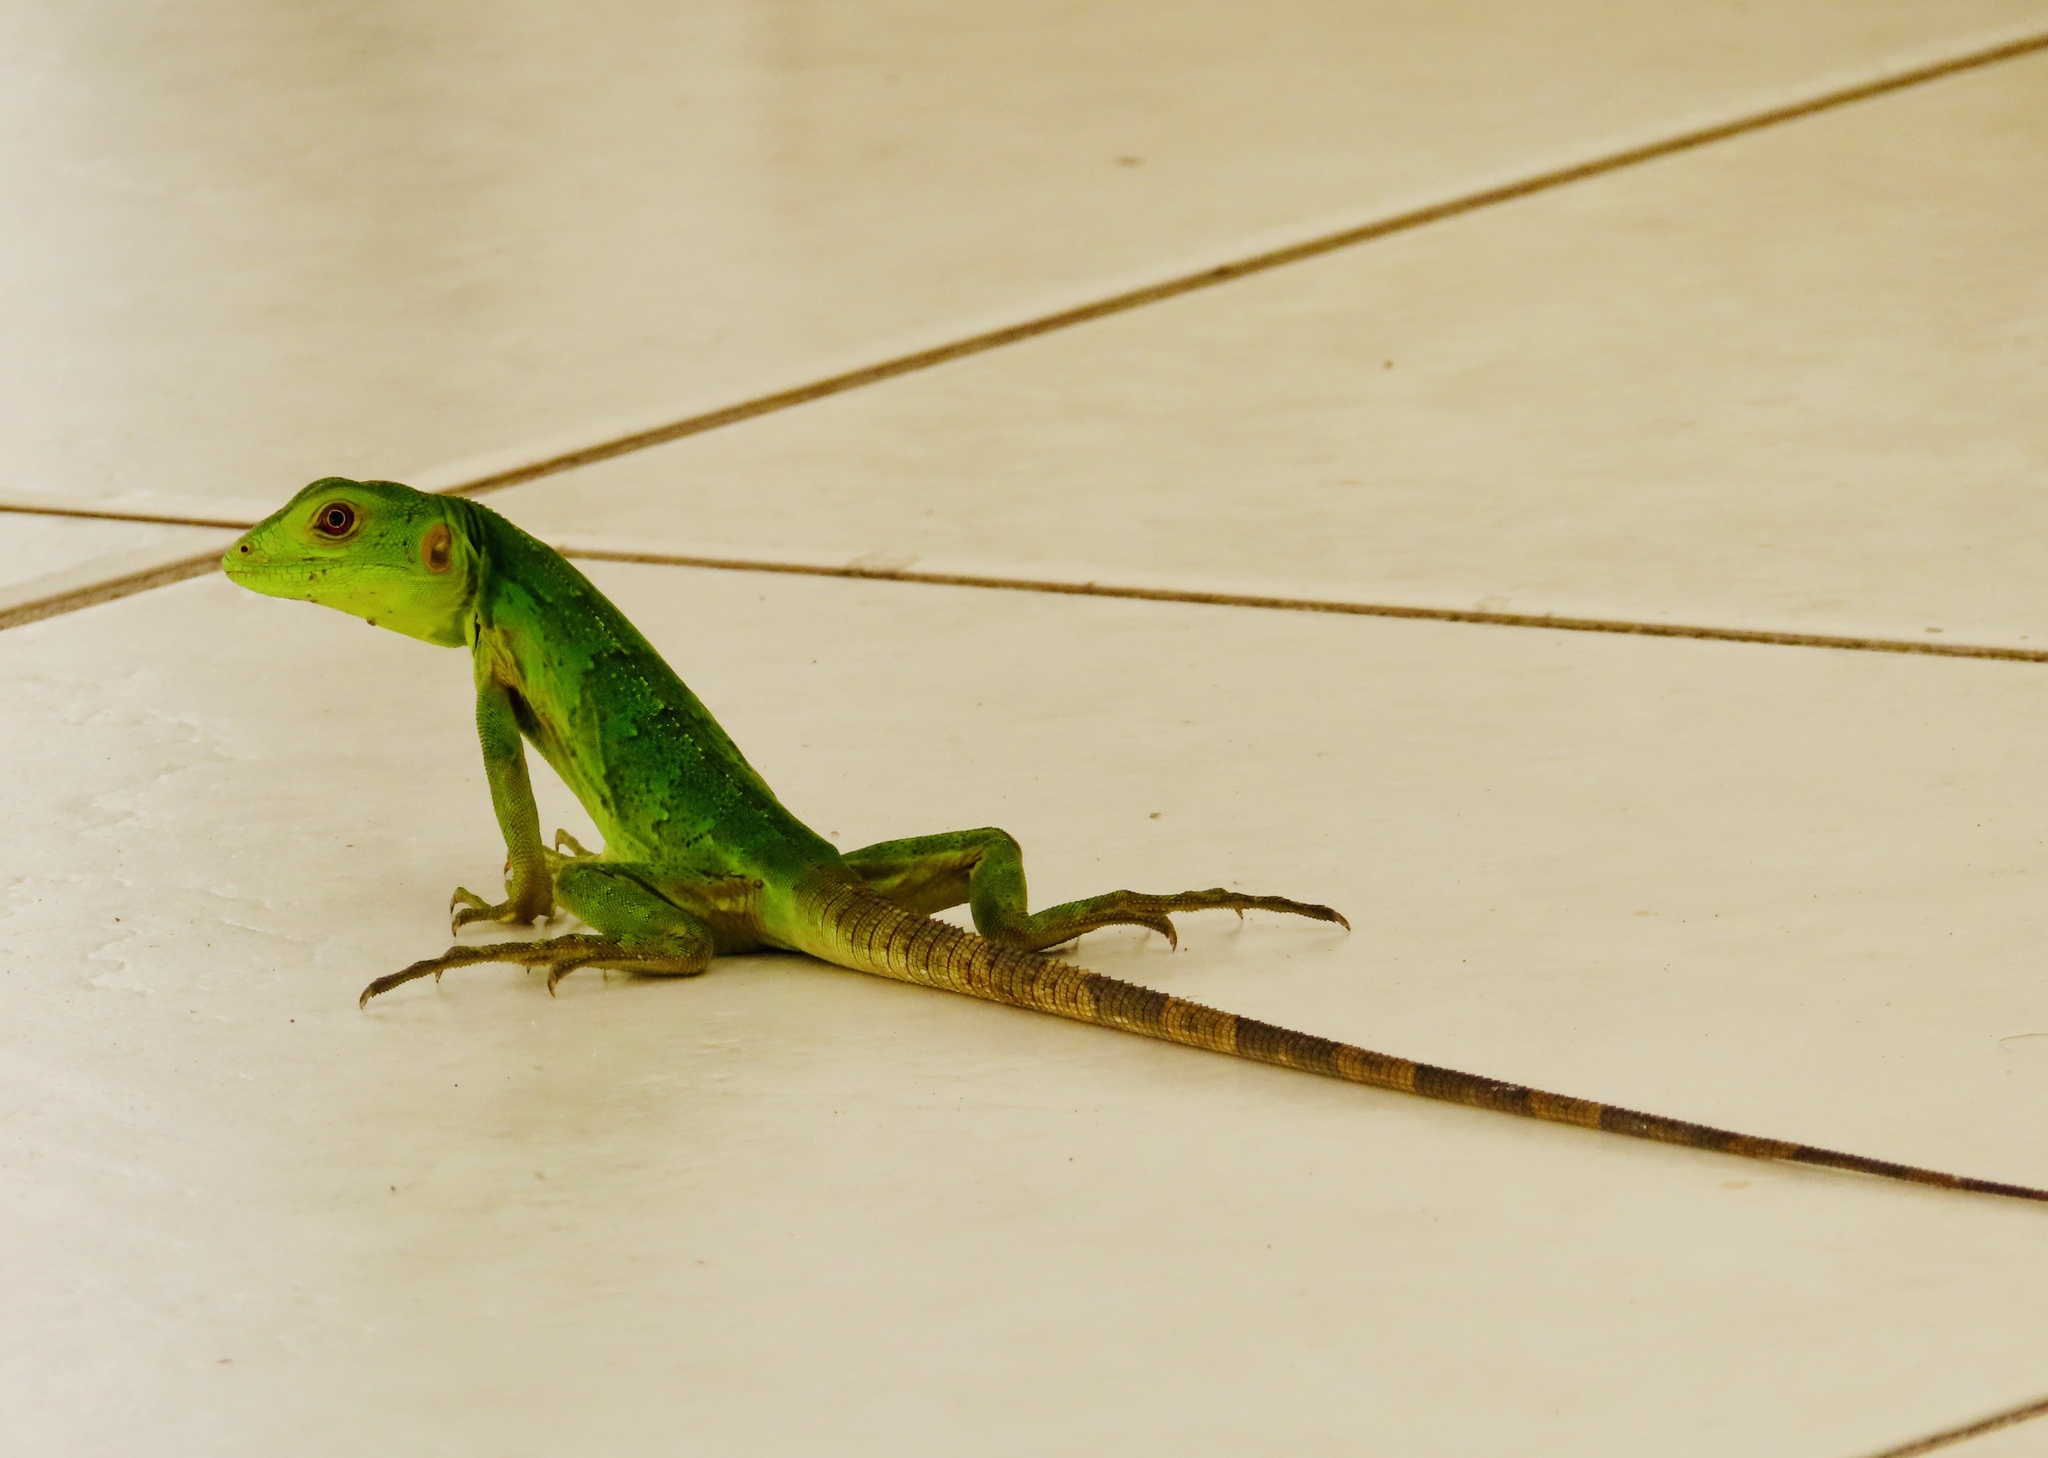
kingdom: Animalia
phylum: Chordata
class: Squamata
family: Iguanidae
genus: Ctenosaura
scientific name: Ctenosaura pectinata
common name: Guerreran spiny-tailed iguana
